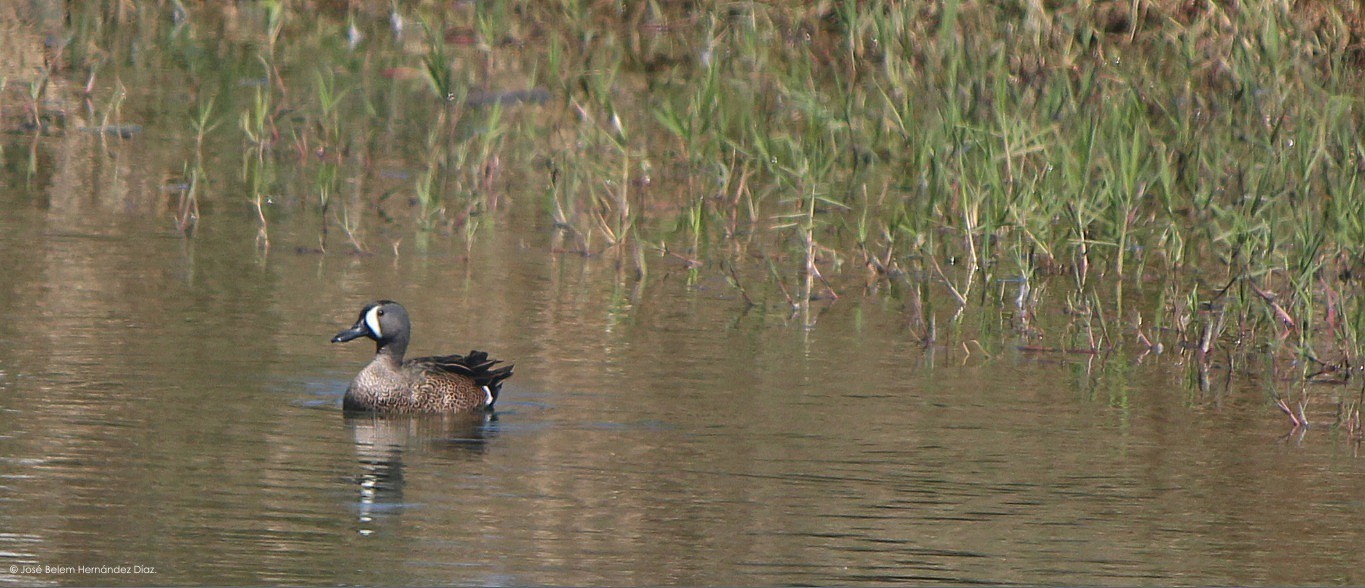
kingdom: Animalia
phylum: Chordata
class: Aves
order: Anseriformes
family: Anatidae
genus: Spatula
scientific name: Spatula discors
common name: Blue-winged teal
